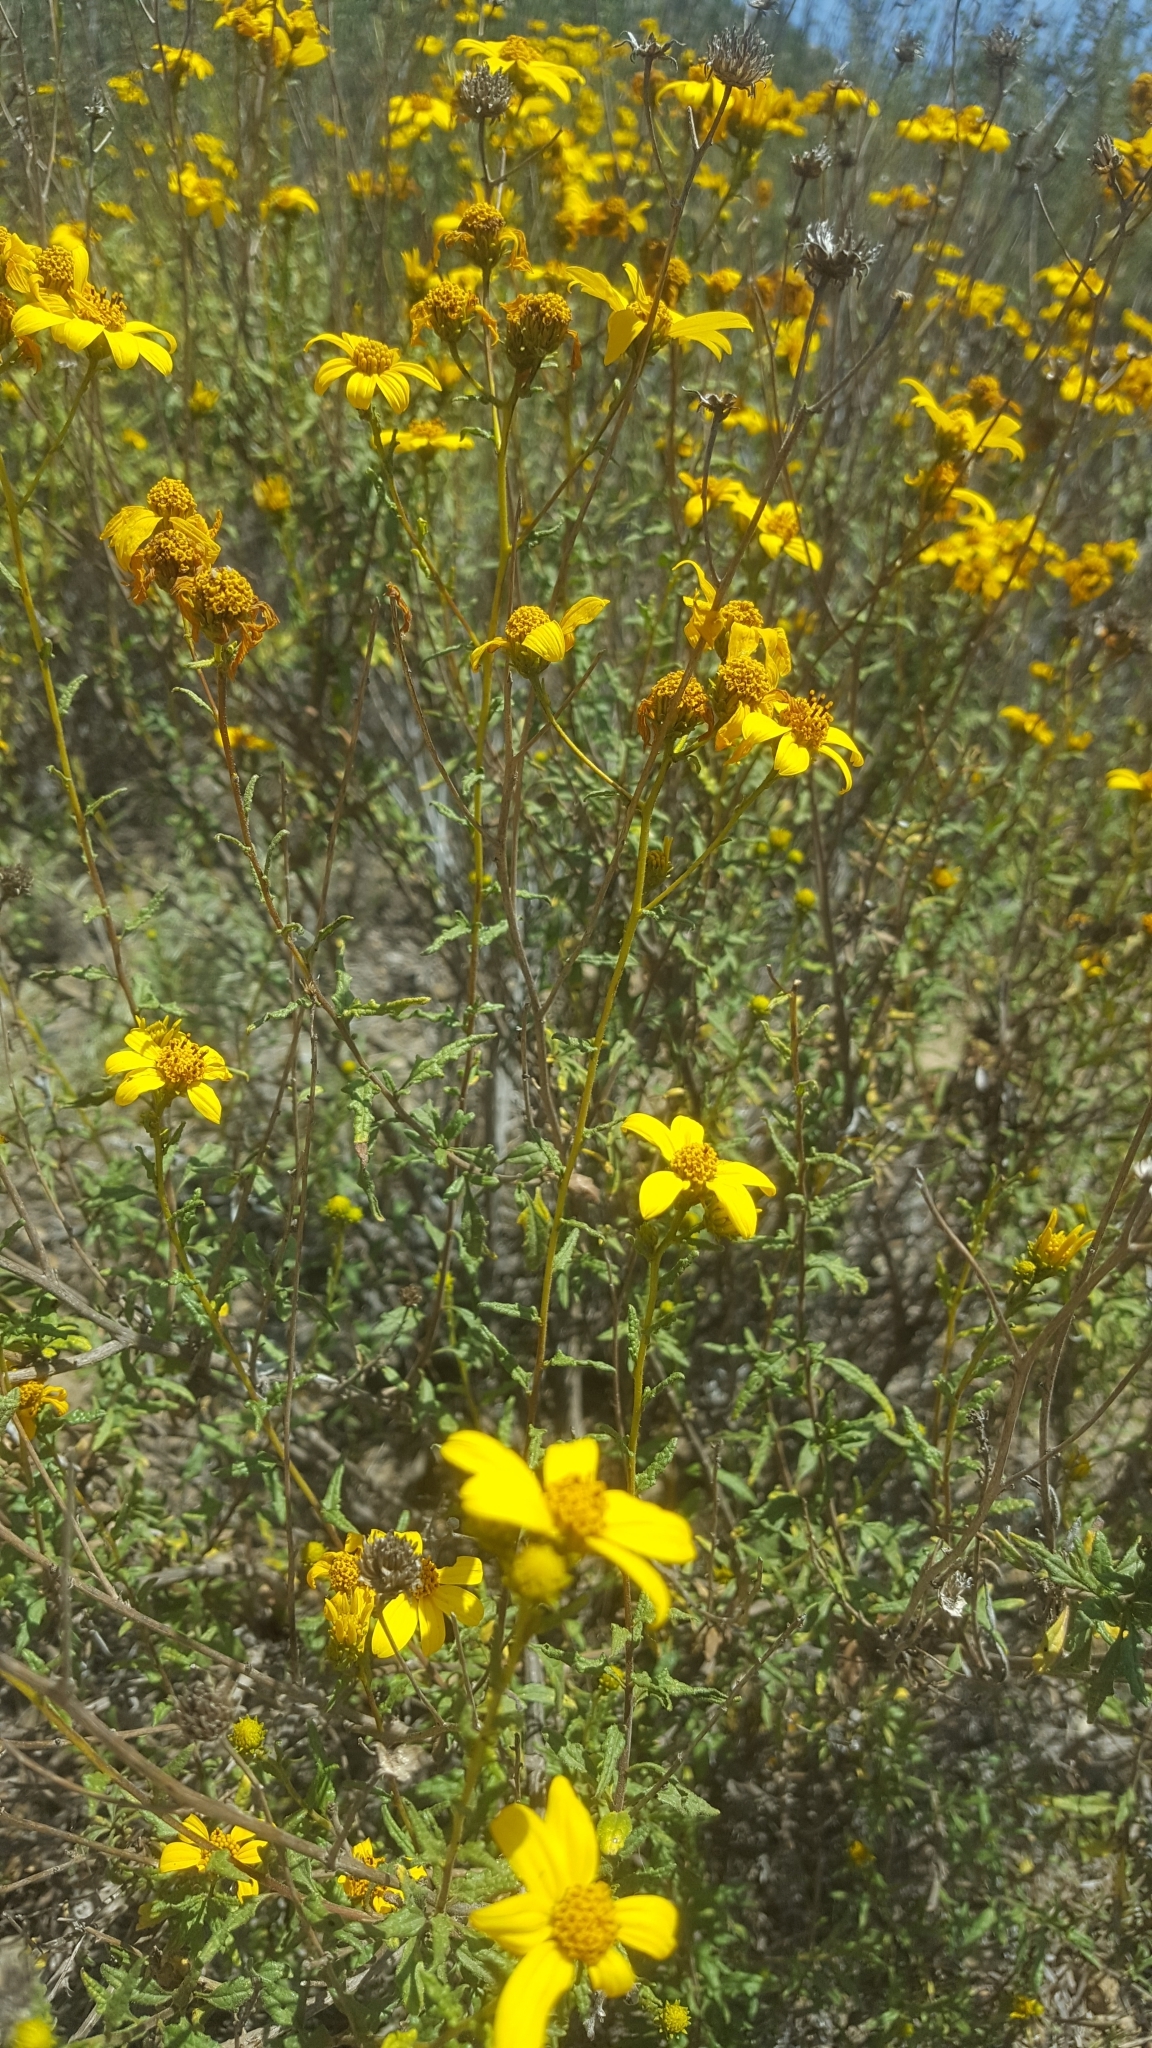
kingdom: Plantae
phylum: Tracheophyta
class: Magnoliopsida
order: Asterales
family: Asteraceae
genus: Bahiopsis
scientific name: Bahiopsis laciniata
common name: San diego county viguiera
